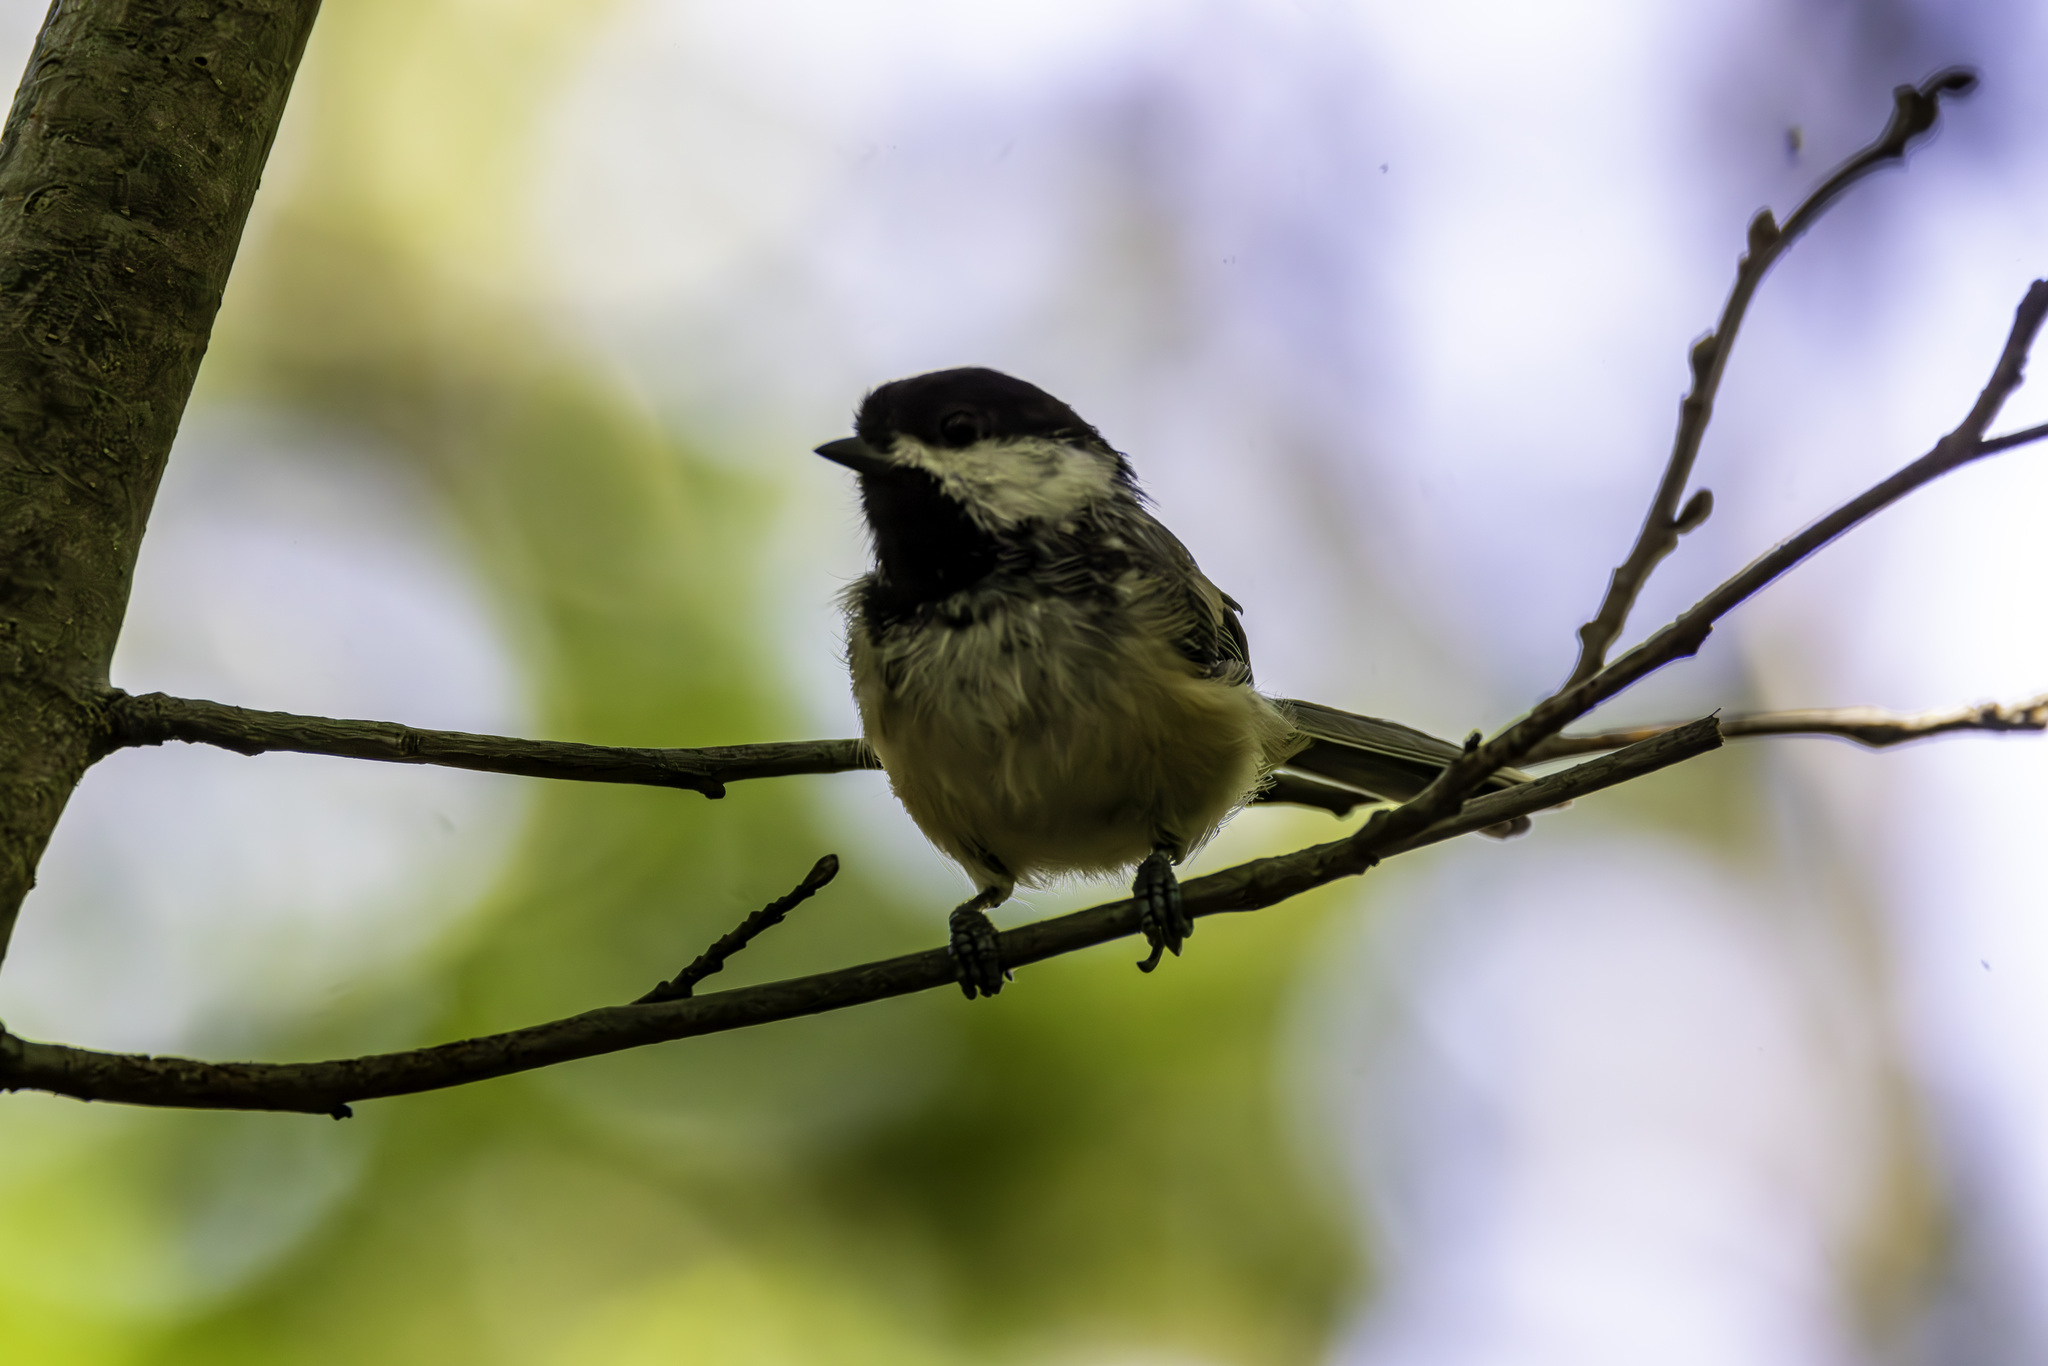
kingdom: Animalia
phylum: Chordata
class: Aves
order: Passeriformes
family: Paridae
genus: Poecile
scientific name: Poecile atricapillus
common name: Black-capped chickadee
